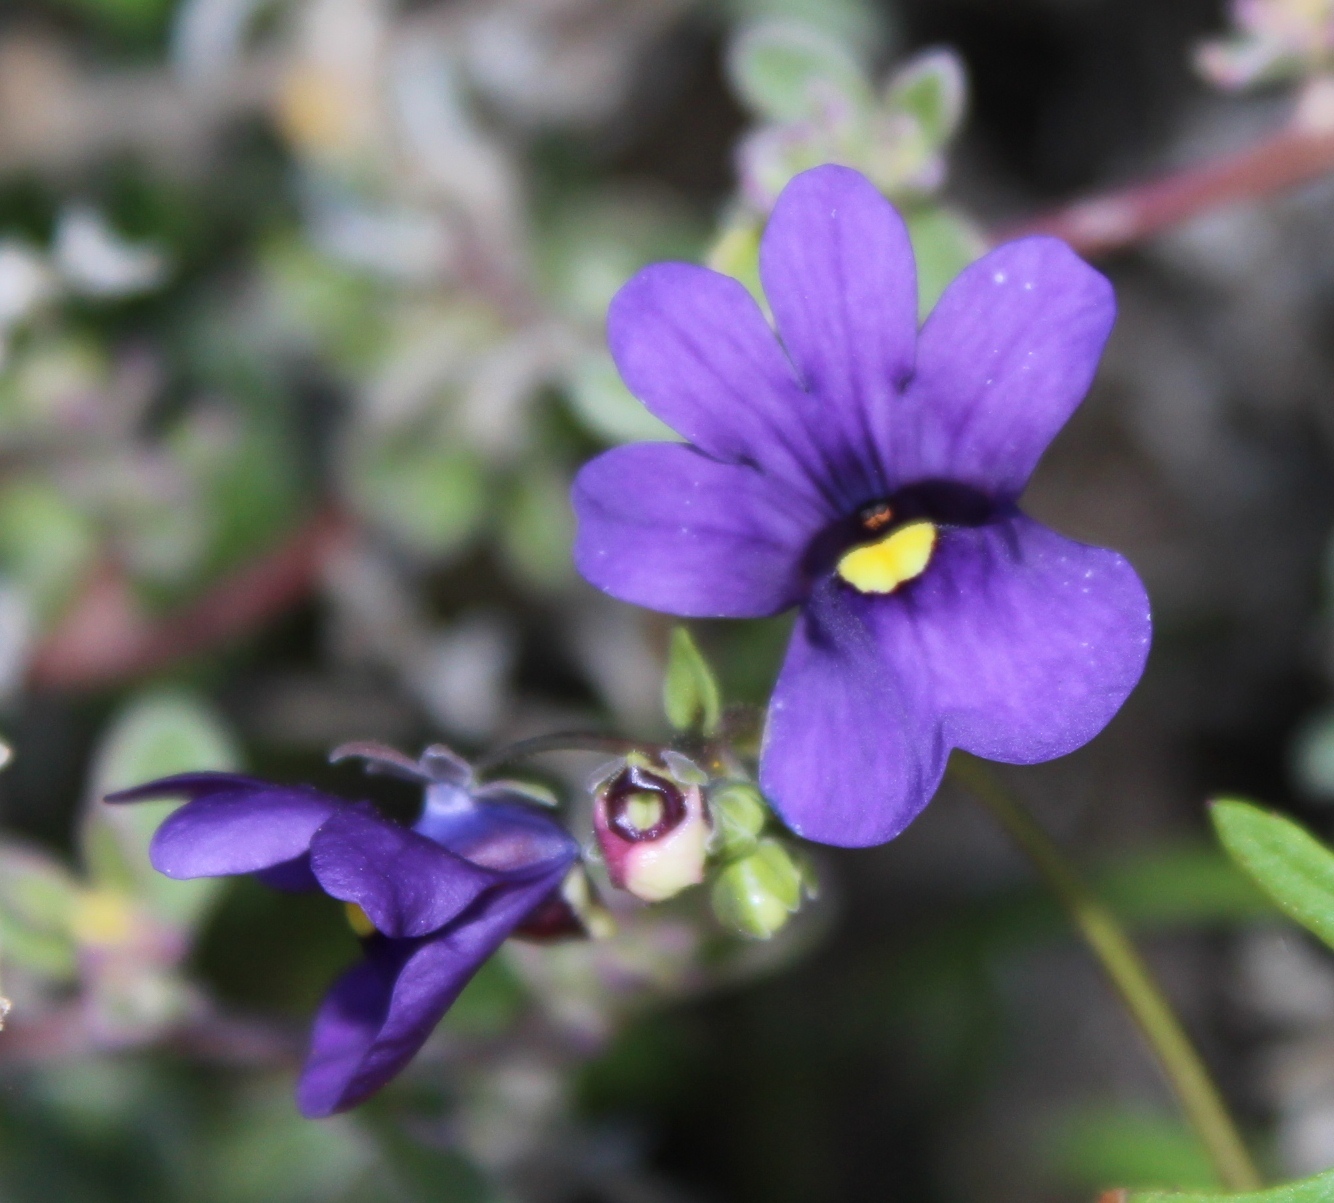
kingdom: Plantae
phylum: Tracheophyta
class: Magnoliopsida
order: Lamiales
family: Scrophulariaceae
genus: Nemesia
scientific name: Nemesia leipoldtii
